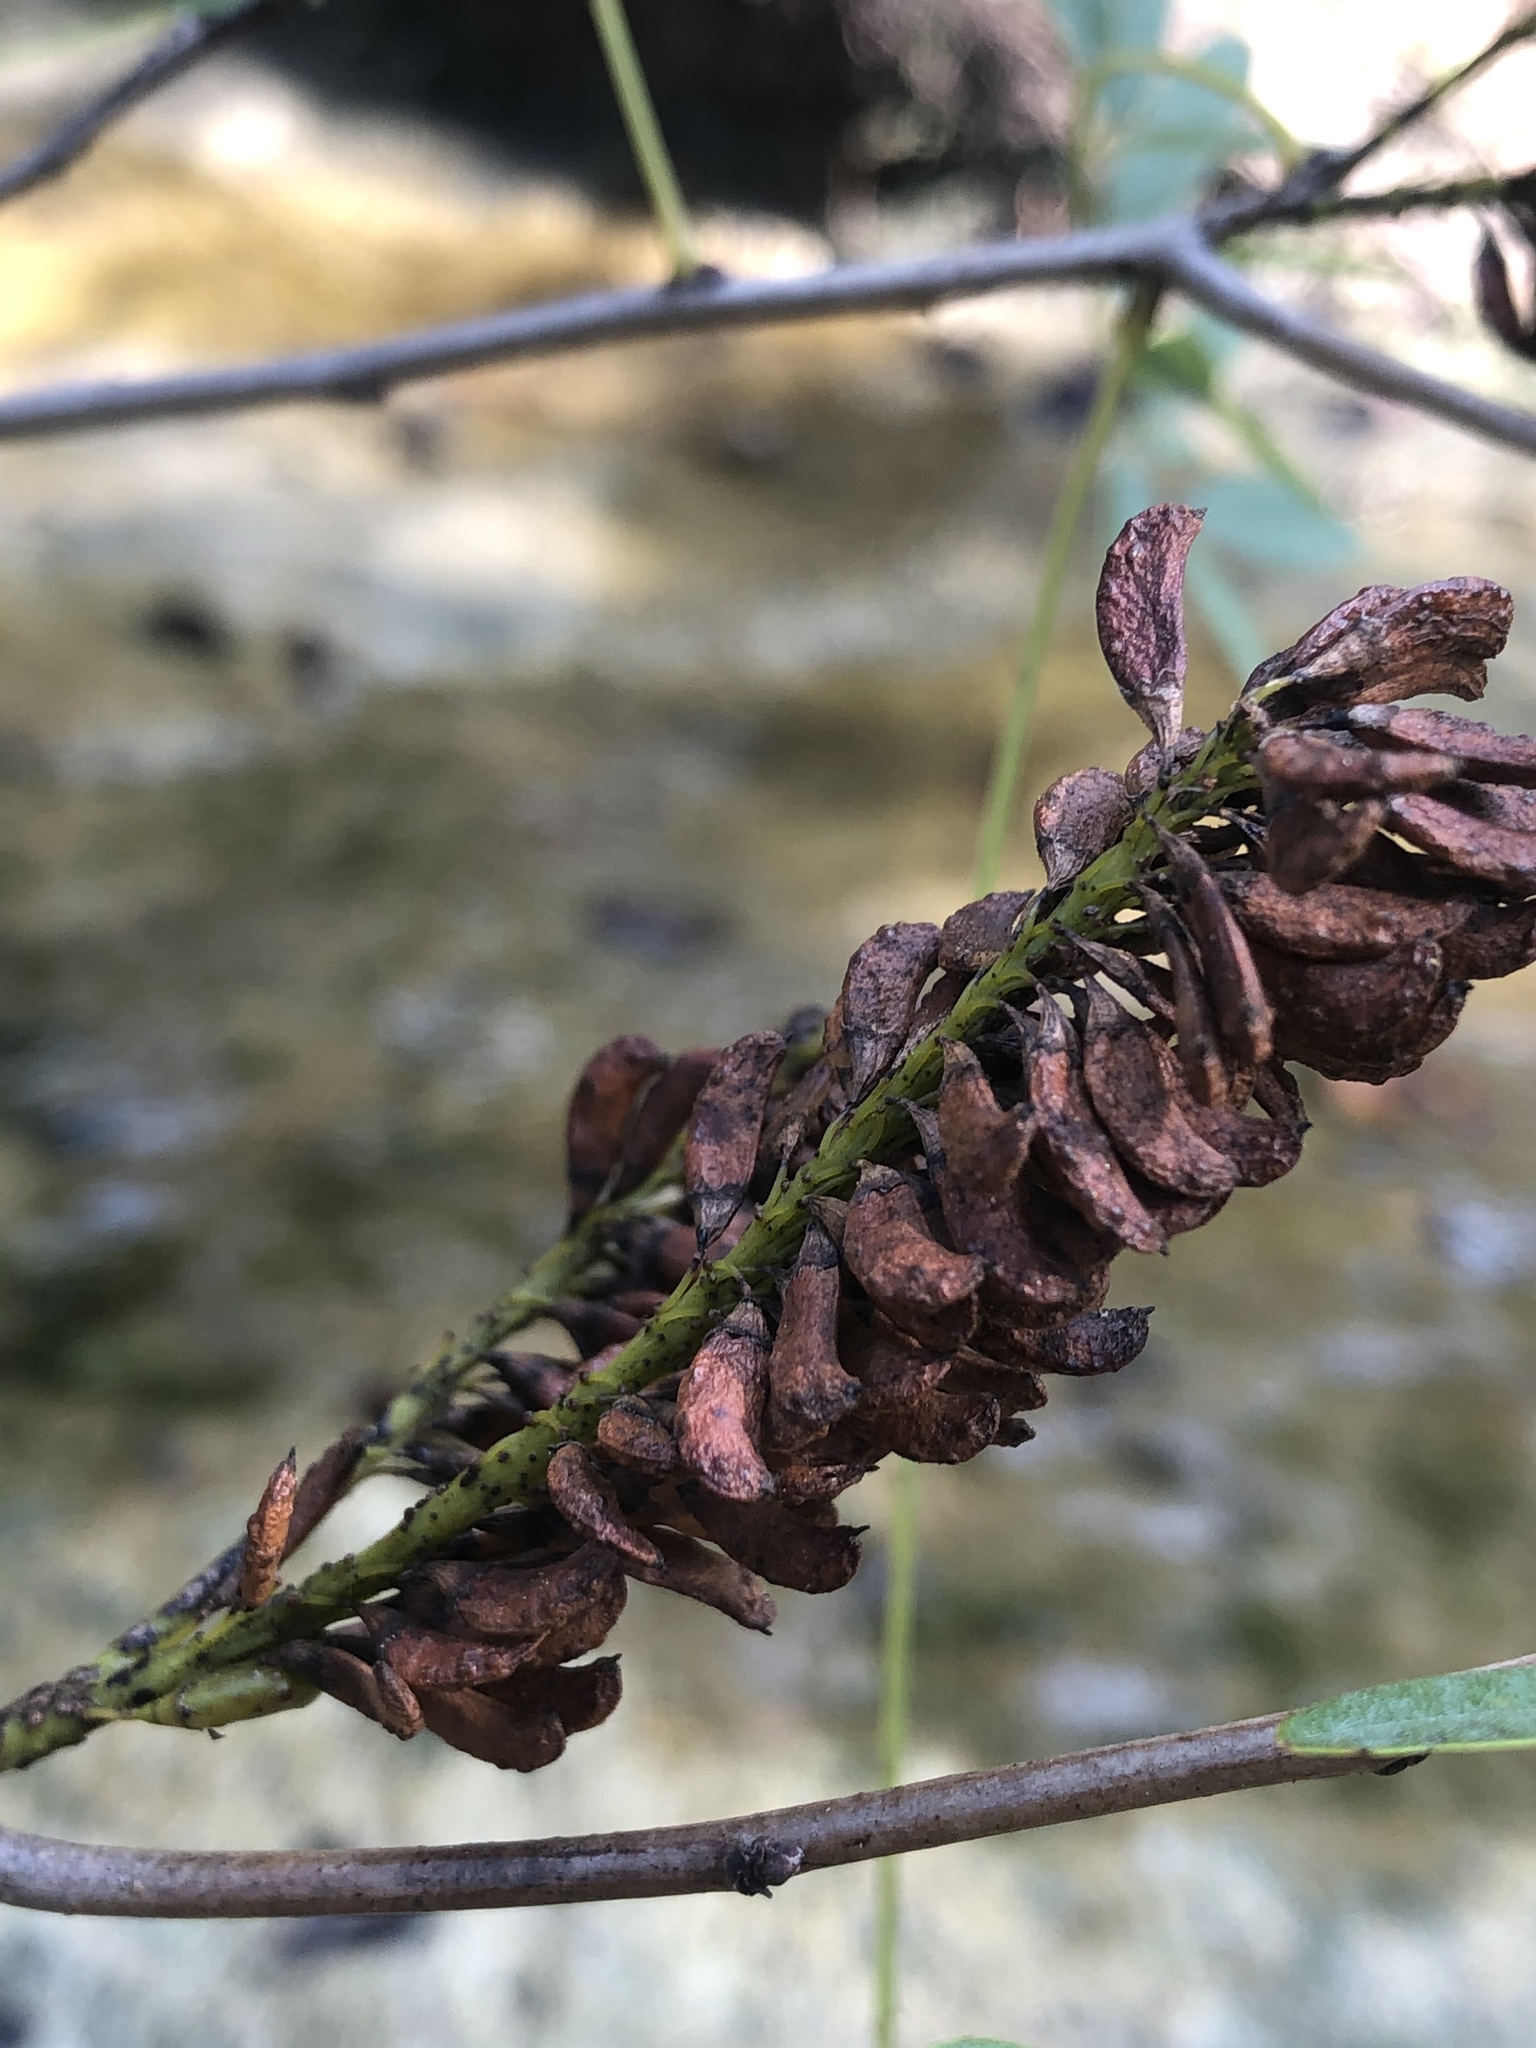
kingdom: Plantae
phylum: Tracheophyta
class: Magnoliopsida
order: Fabales
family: Fabaceae
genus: Amorpha
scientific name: Amorpha fruticosa
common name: False indigo
